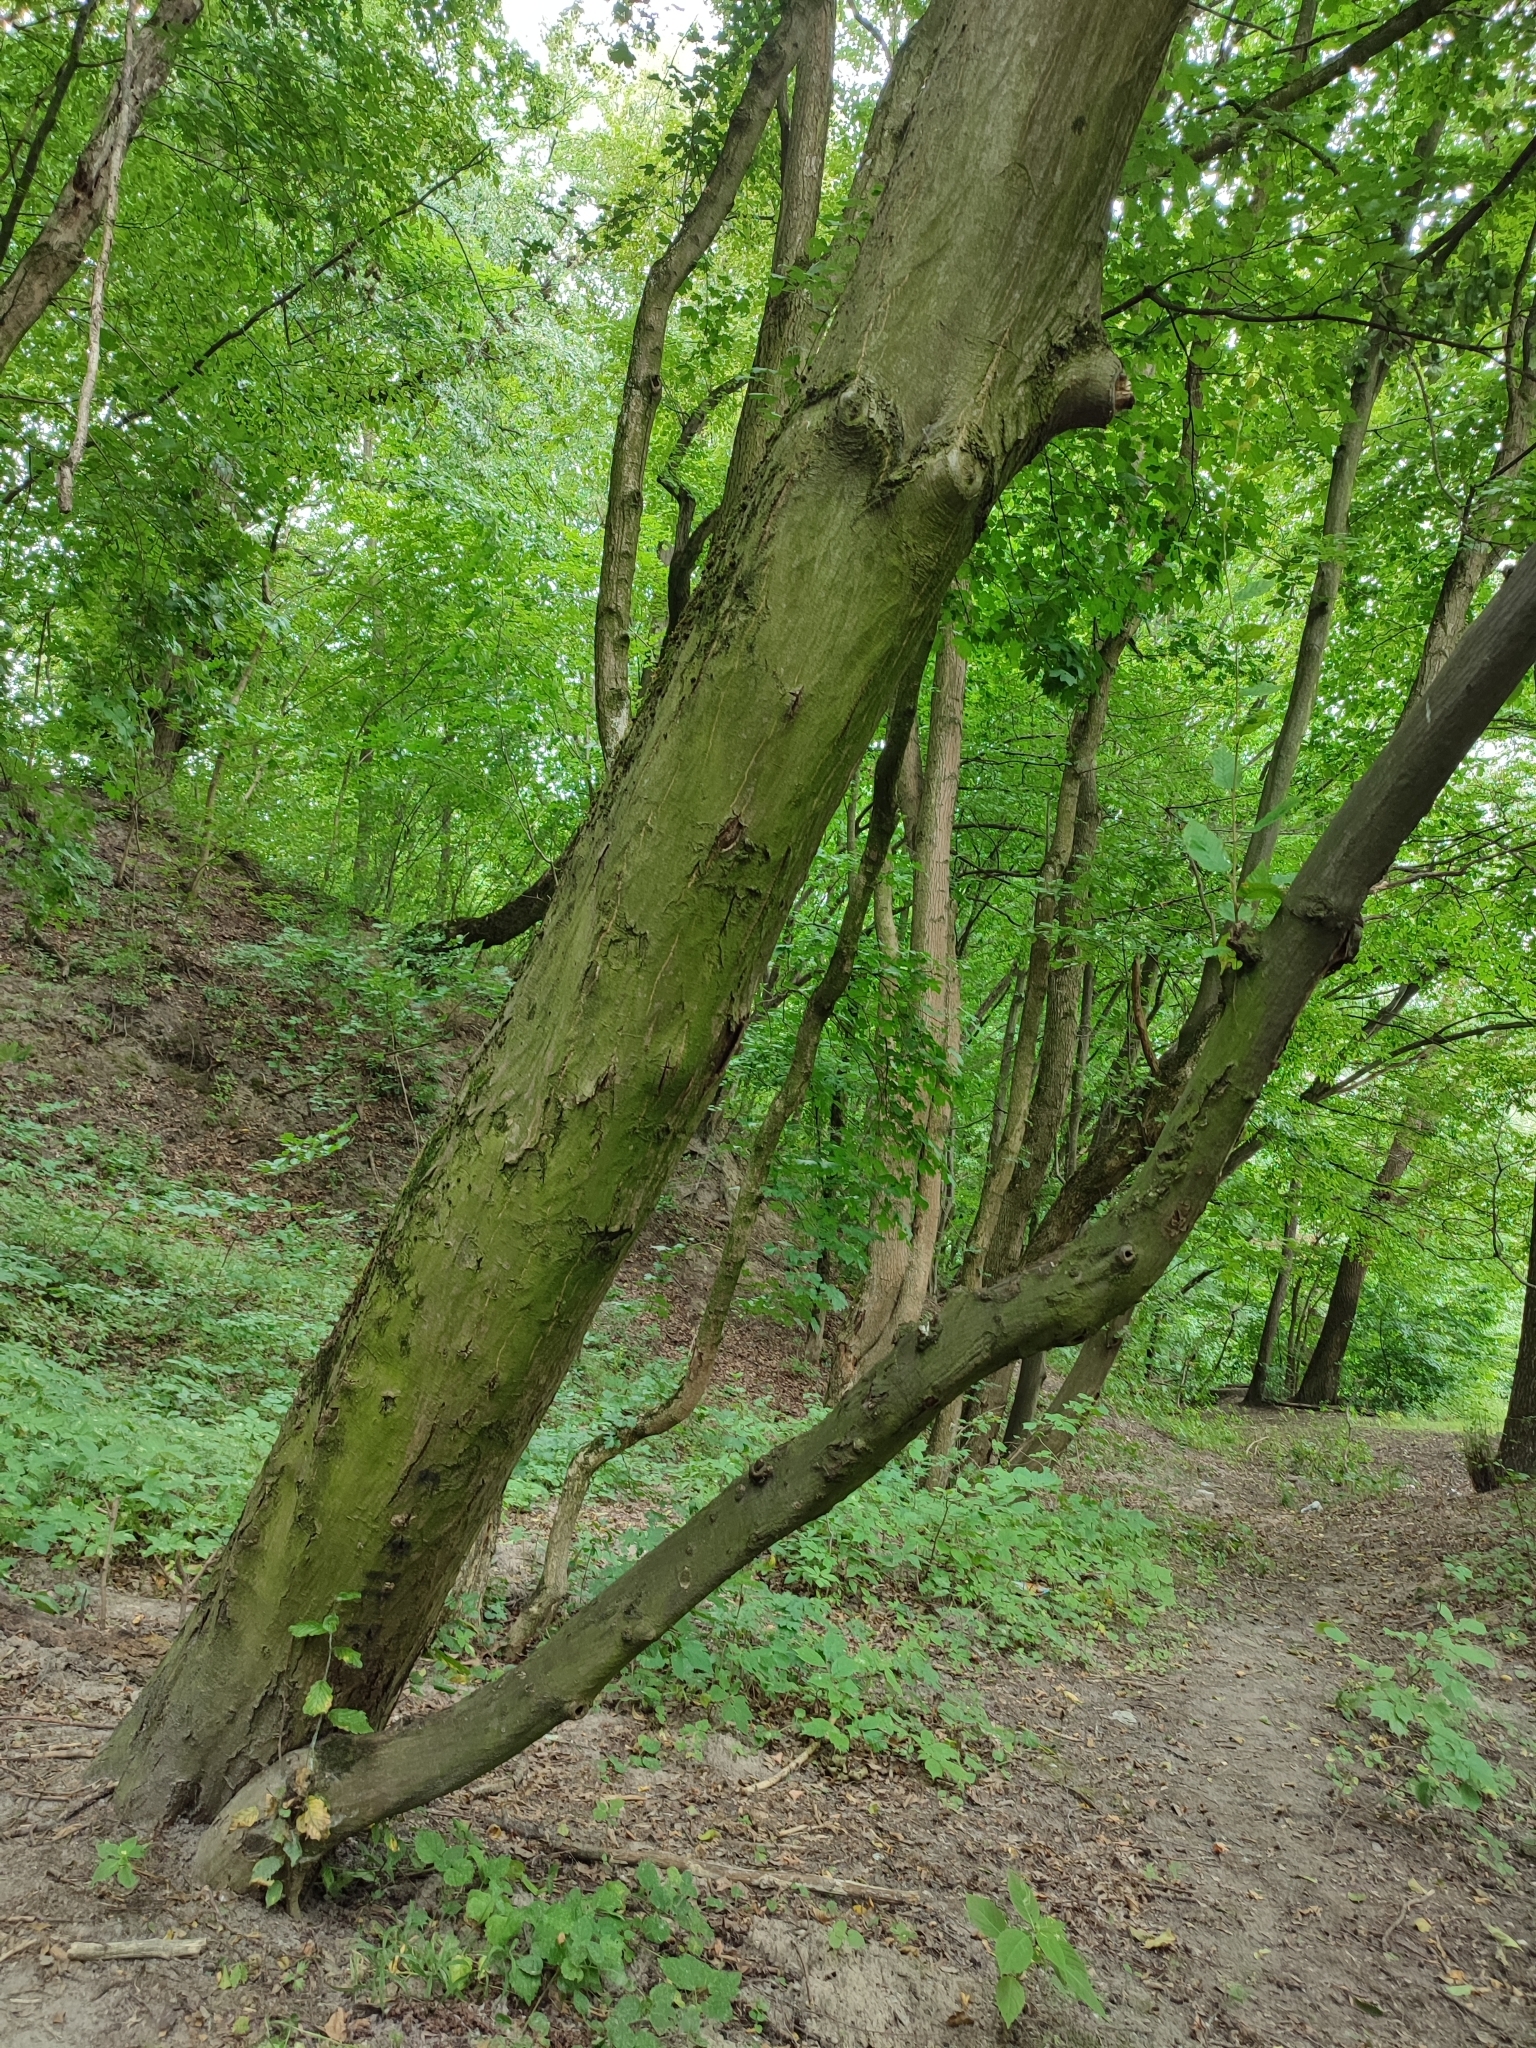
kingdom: Plantae
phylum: Tracheophyta
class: Magnoliopsida
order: Fagales
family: Betulaceae
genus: Carpinus
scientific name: Carpinus betulus
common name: Hornbeam
